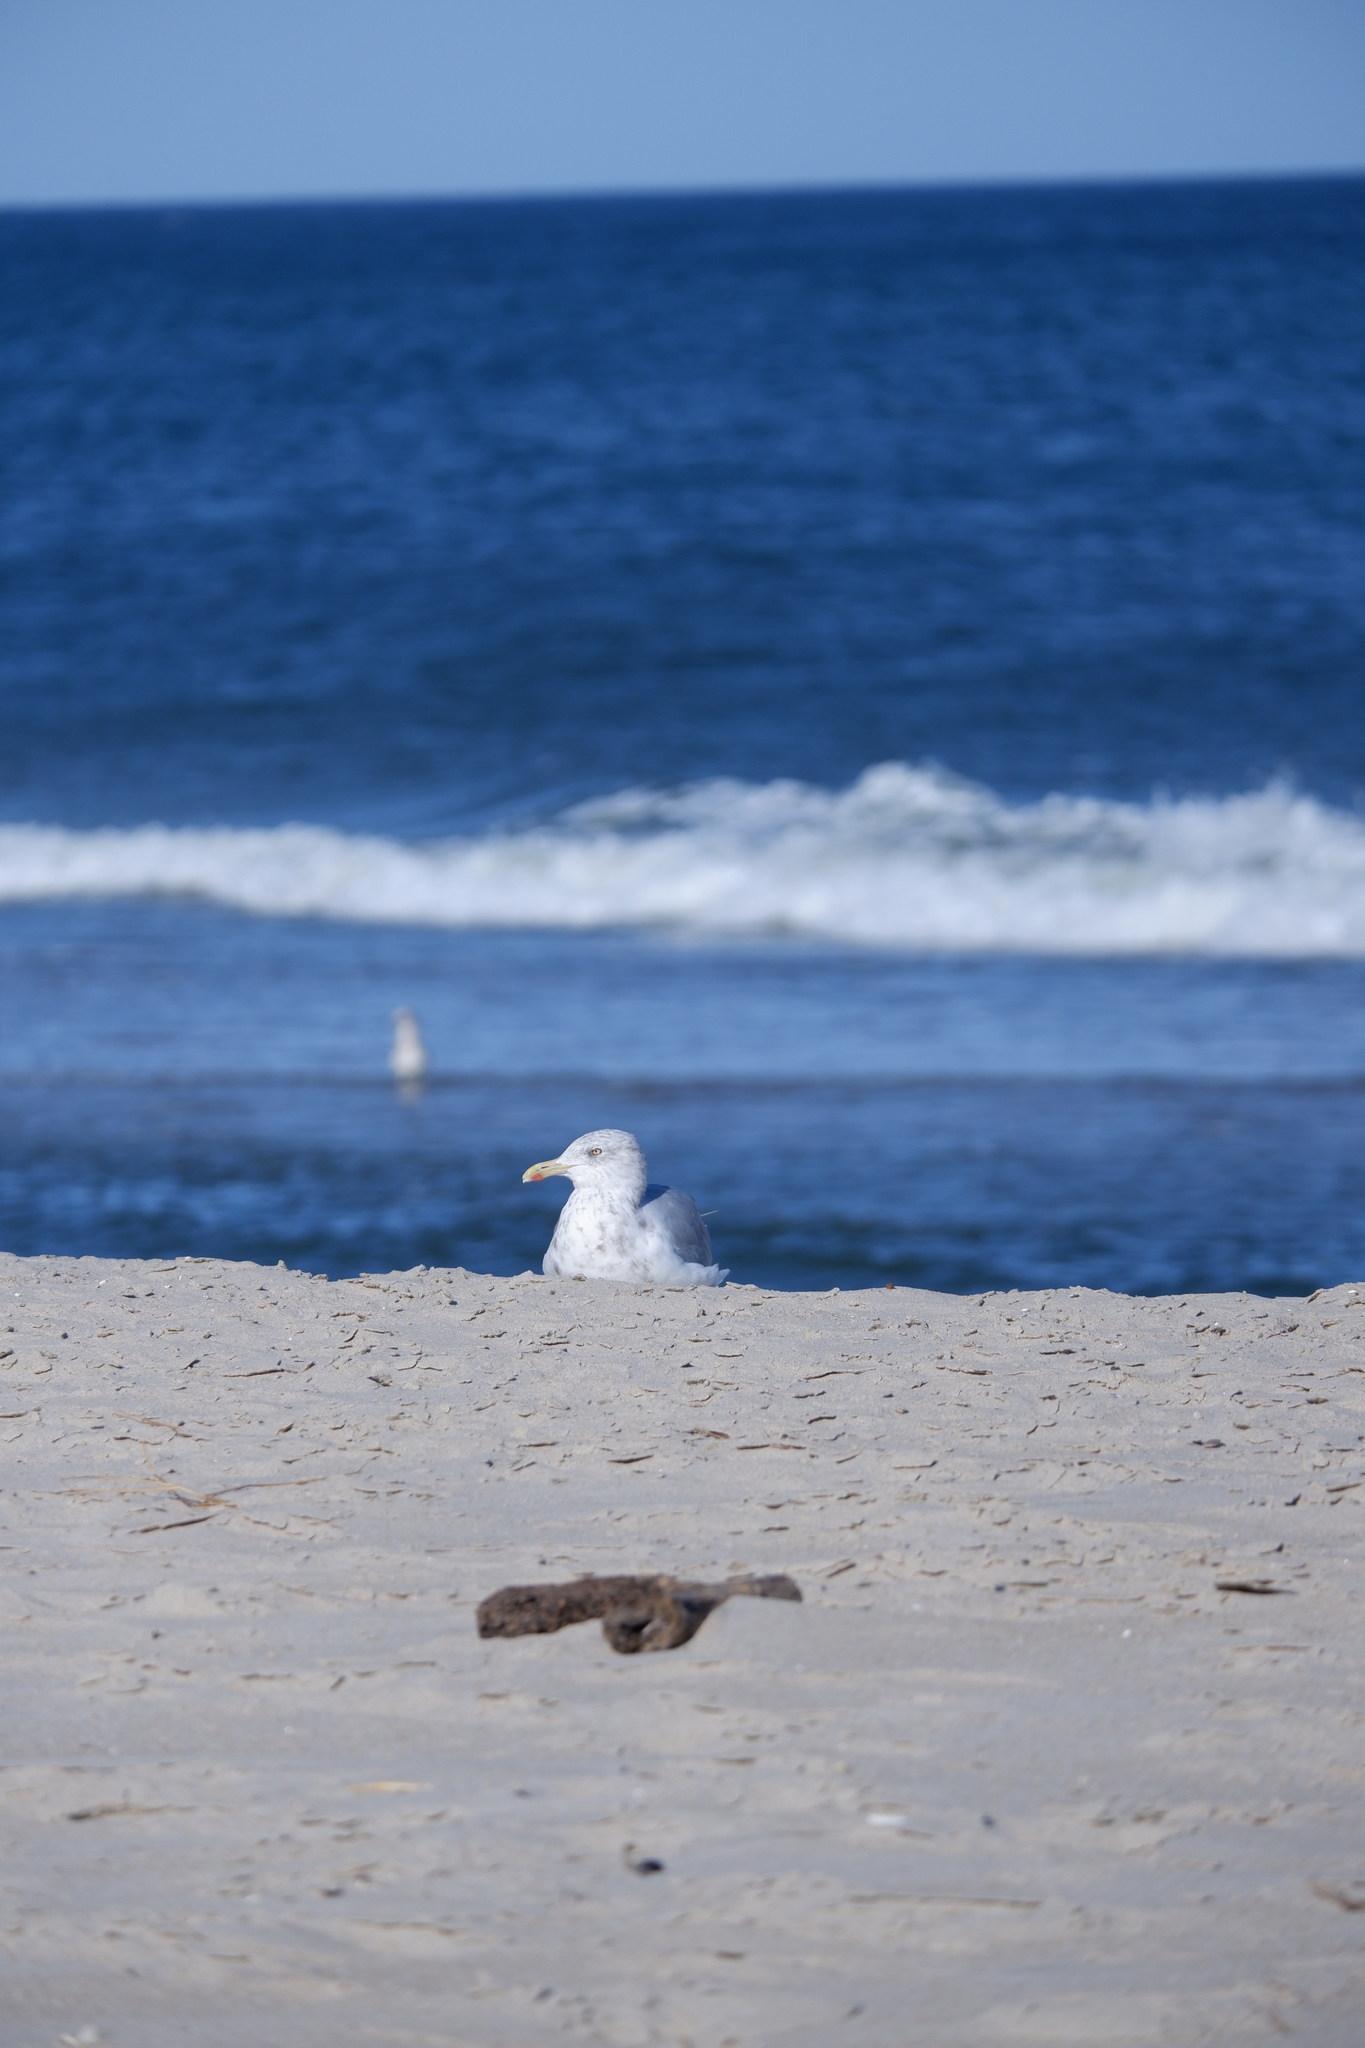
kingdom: Animalia
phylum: Chordata
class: Aves
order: Charadriiformes
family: Laridae
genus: Larus
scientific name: Larus smithsonianus
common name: American herring gull
